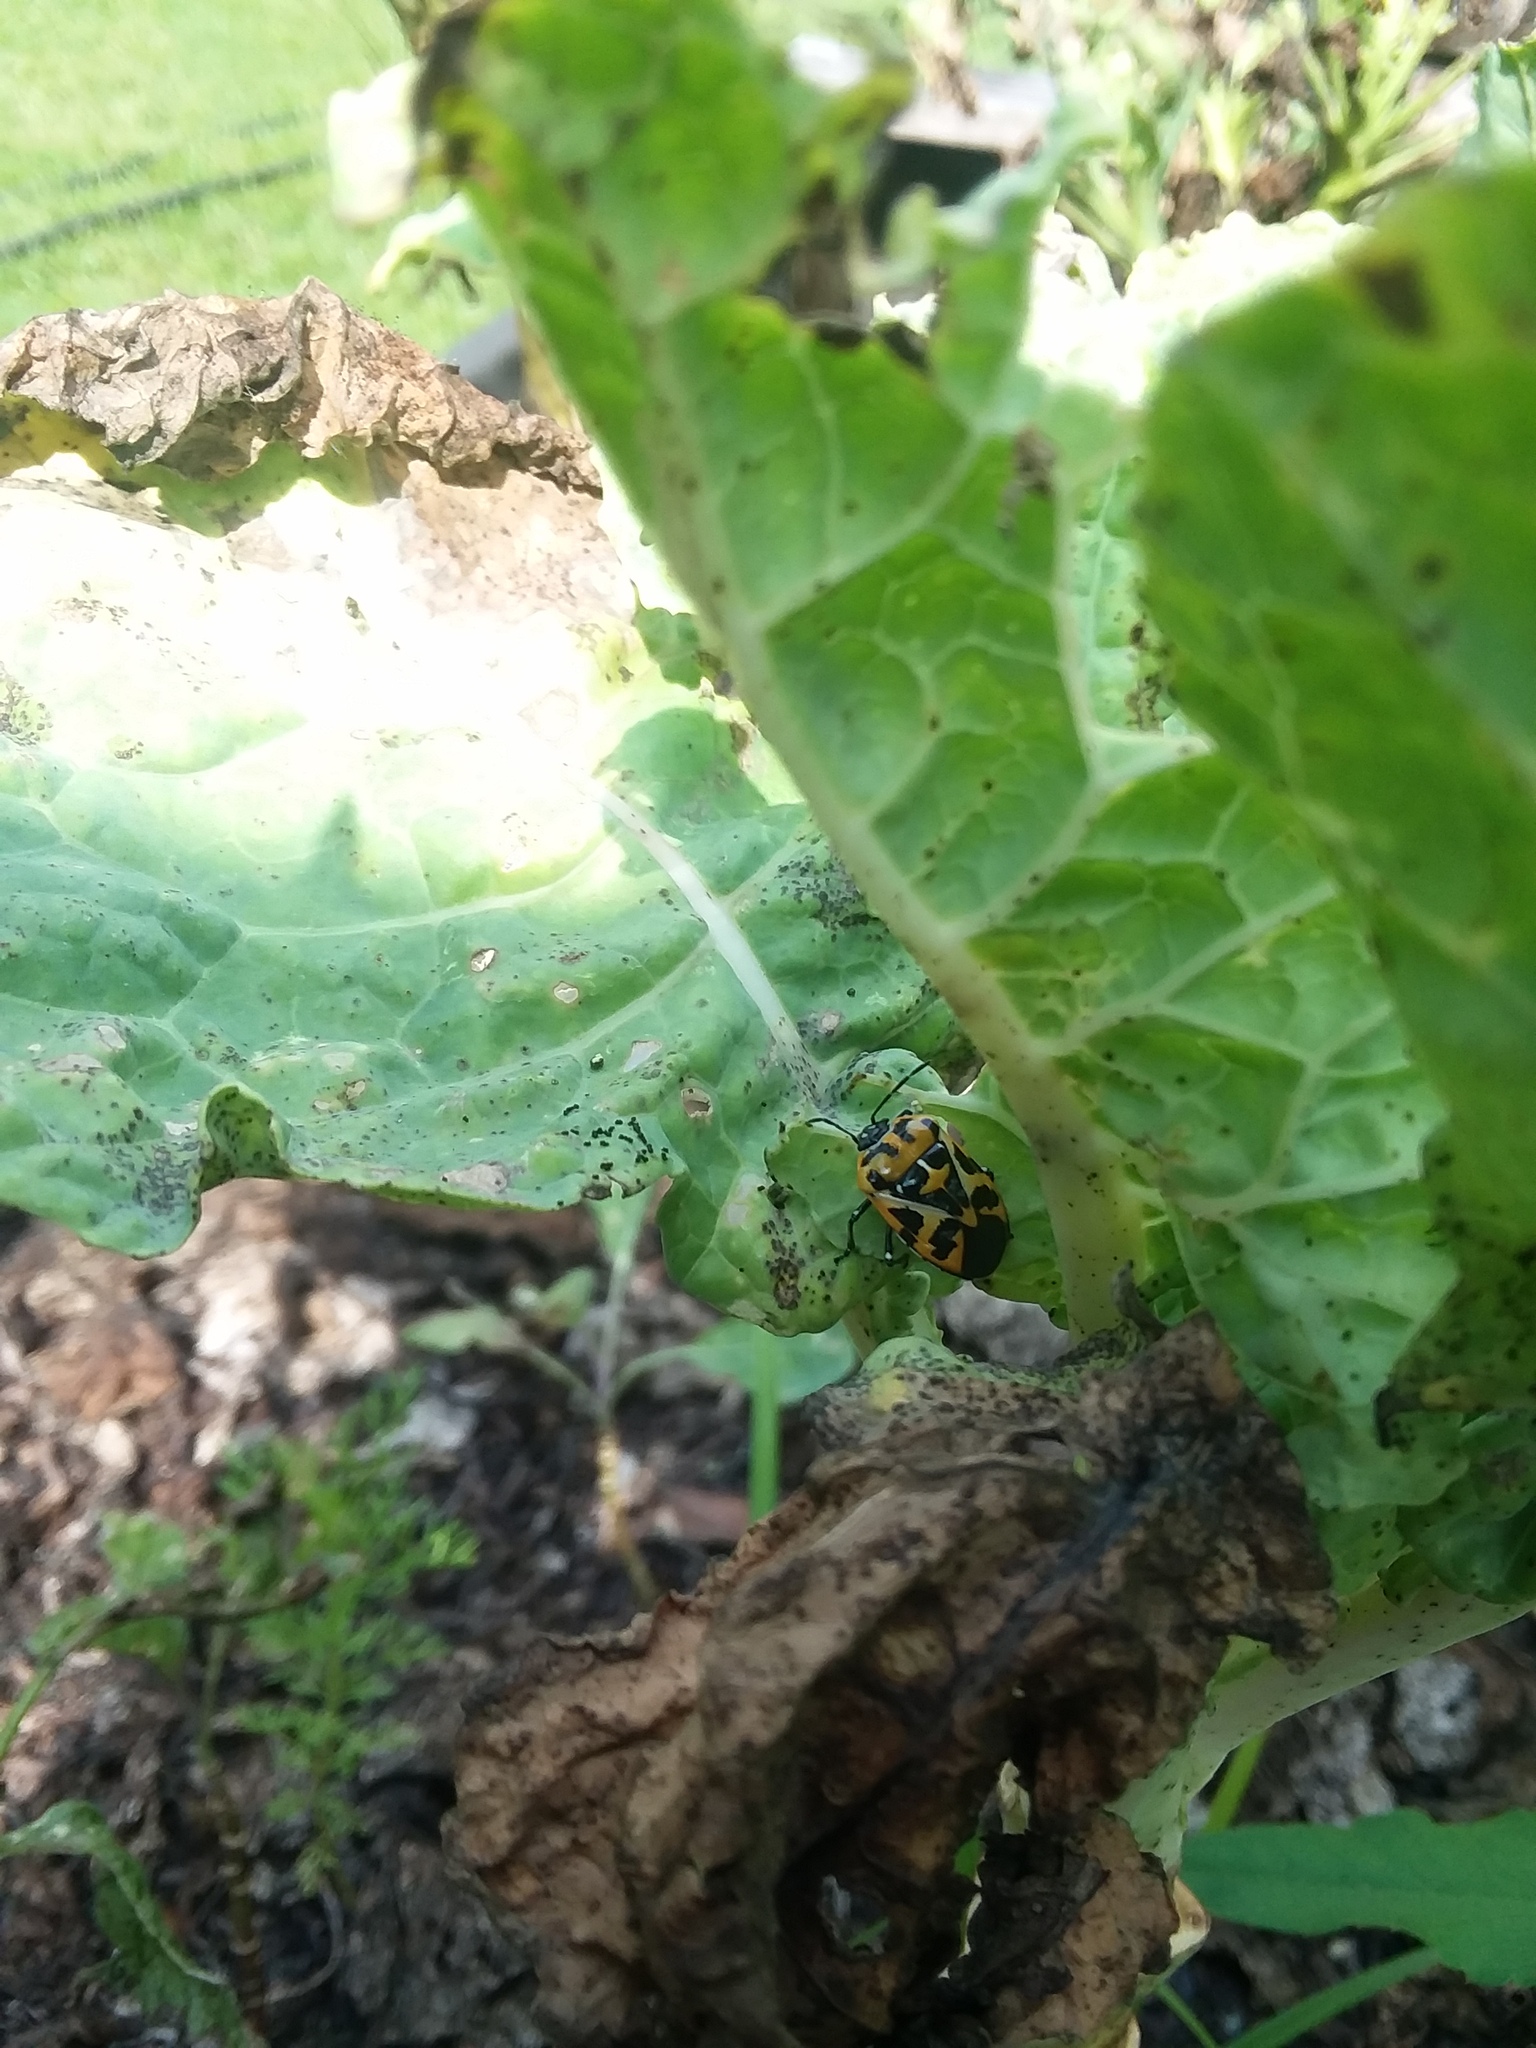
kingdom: Animalia
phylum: Arthropoda
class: Insecta
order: Hemiptera
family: Pentatomidae
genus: Murgantia
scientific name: Murgantia histrionica
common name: Harlequin bug
